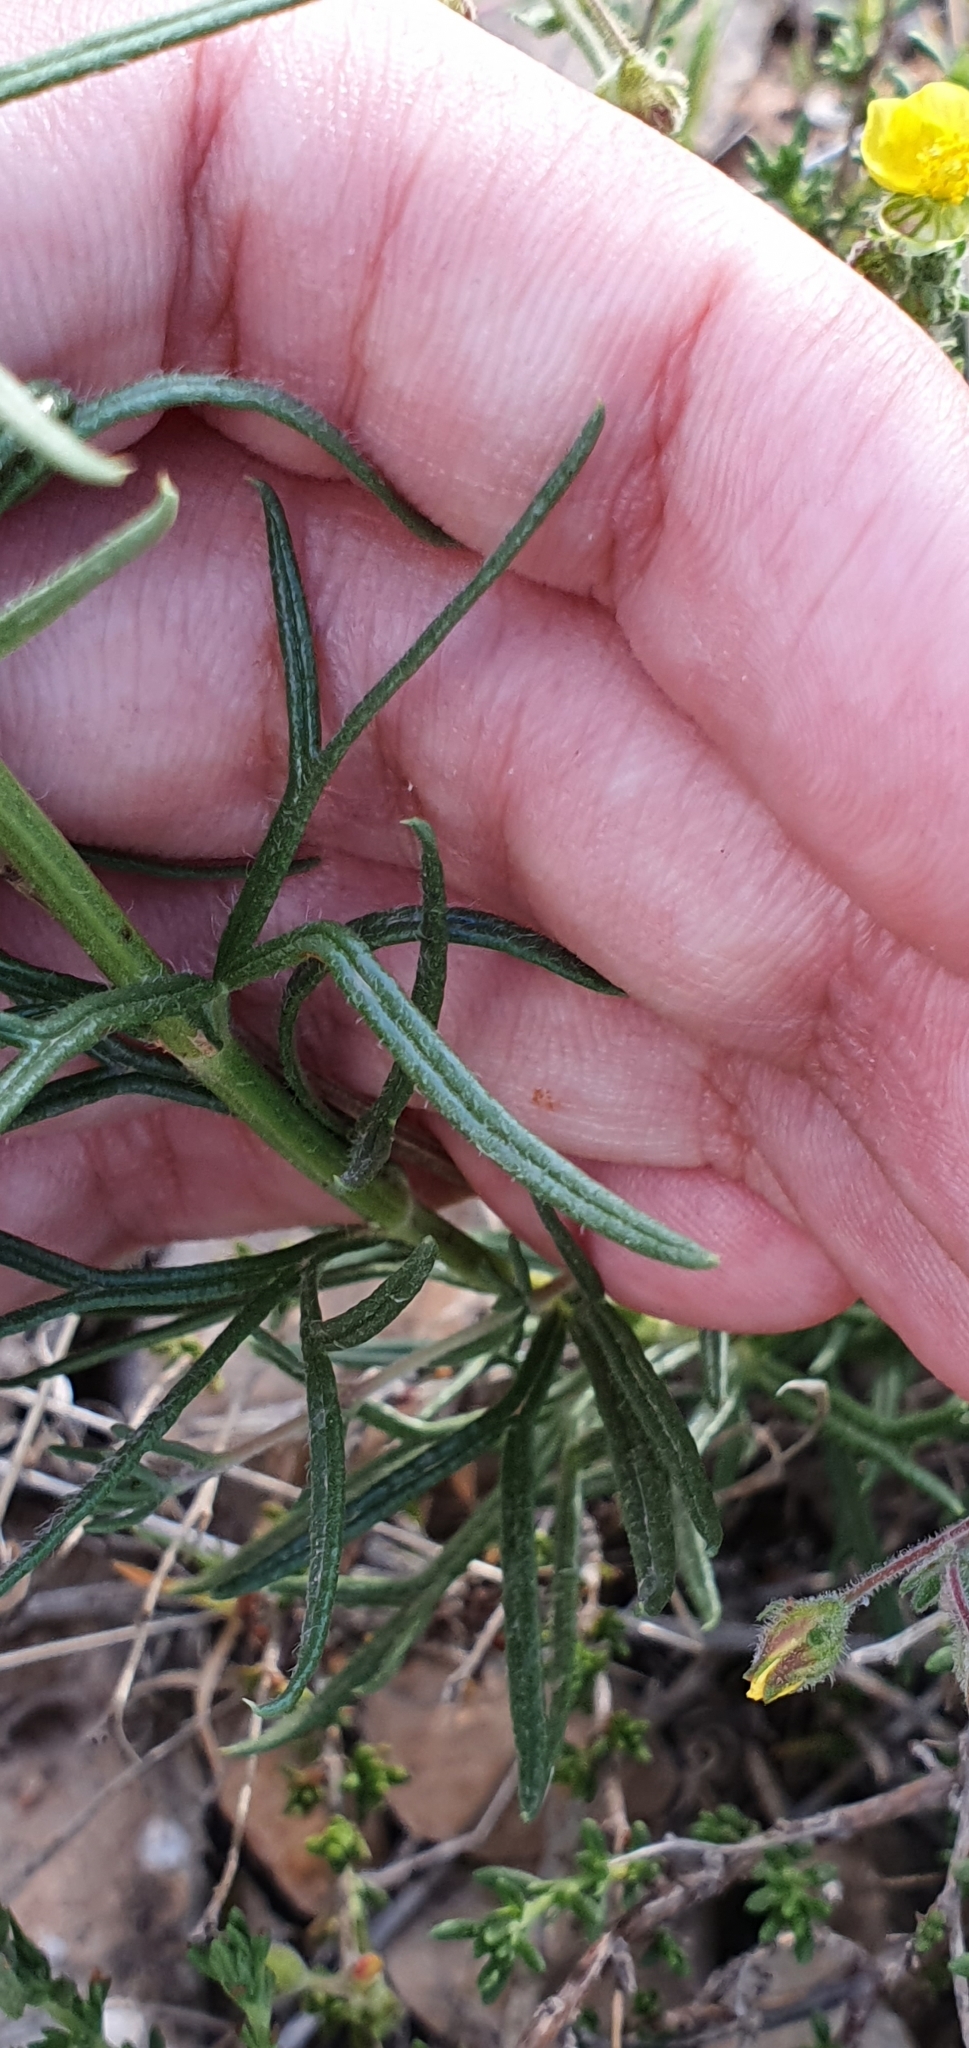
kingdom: Plantae
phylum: Tracheophyta
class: Magnoliopsida
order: Lamiales
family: Lamiaceae
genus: Teucrium
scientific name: Teucrium pseudochamaepitys
